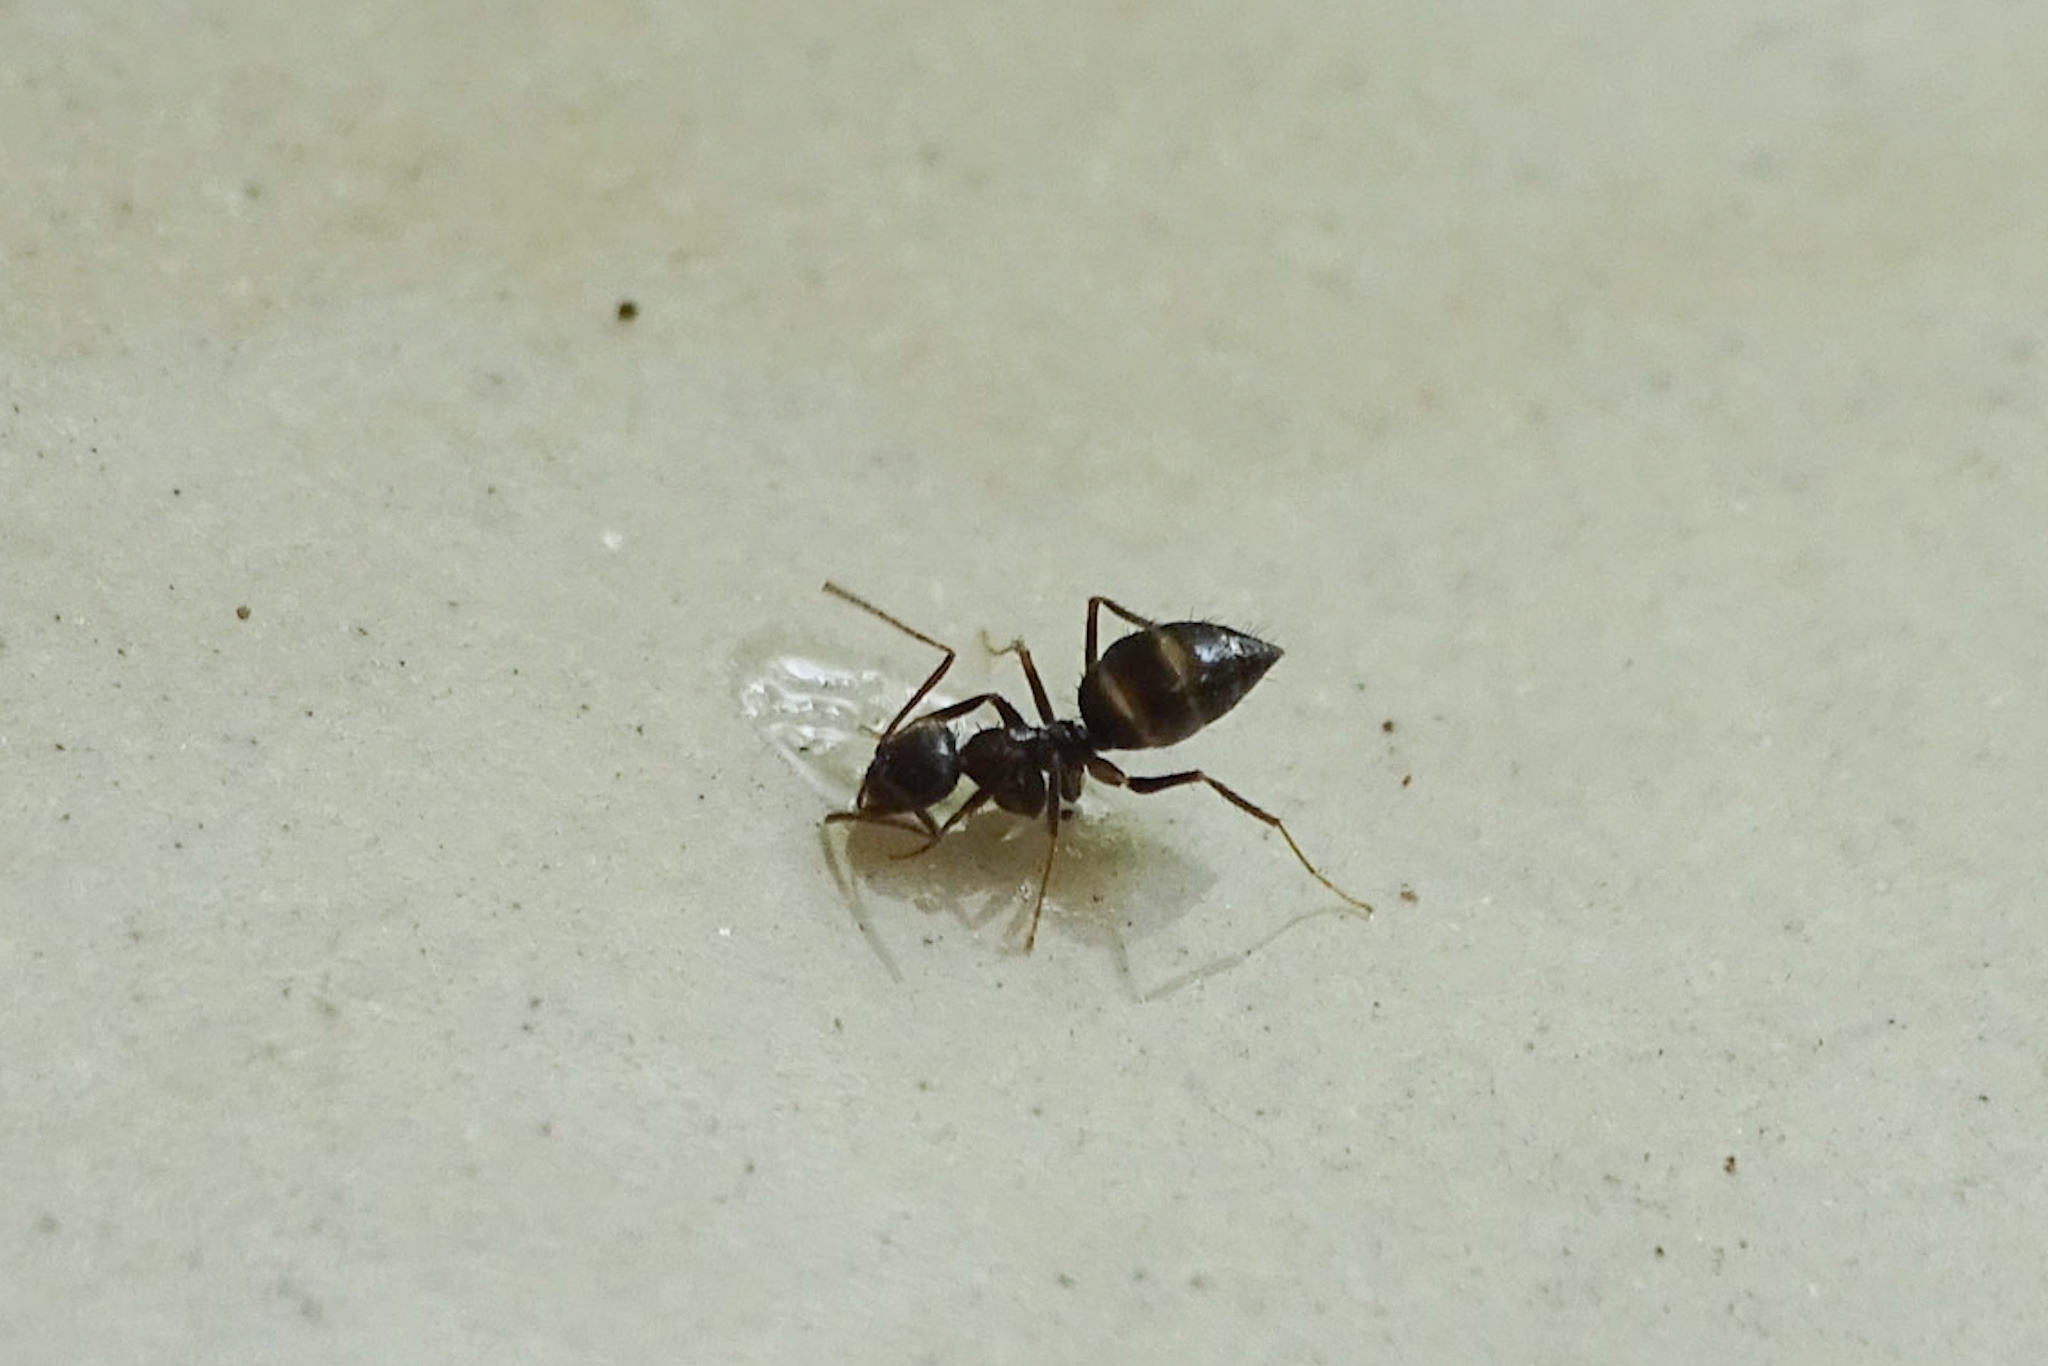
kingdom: Animalia
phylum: Arthropoda
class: Insecta
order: Hymenoptera
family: Formicidae
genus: Paratrechina
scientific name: Paratrechina bourbonica
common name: Ant
